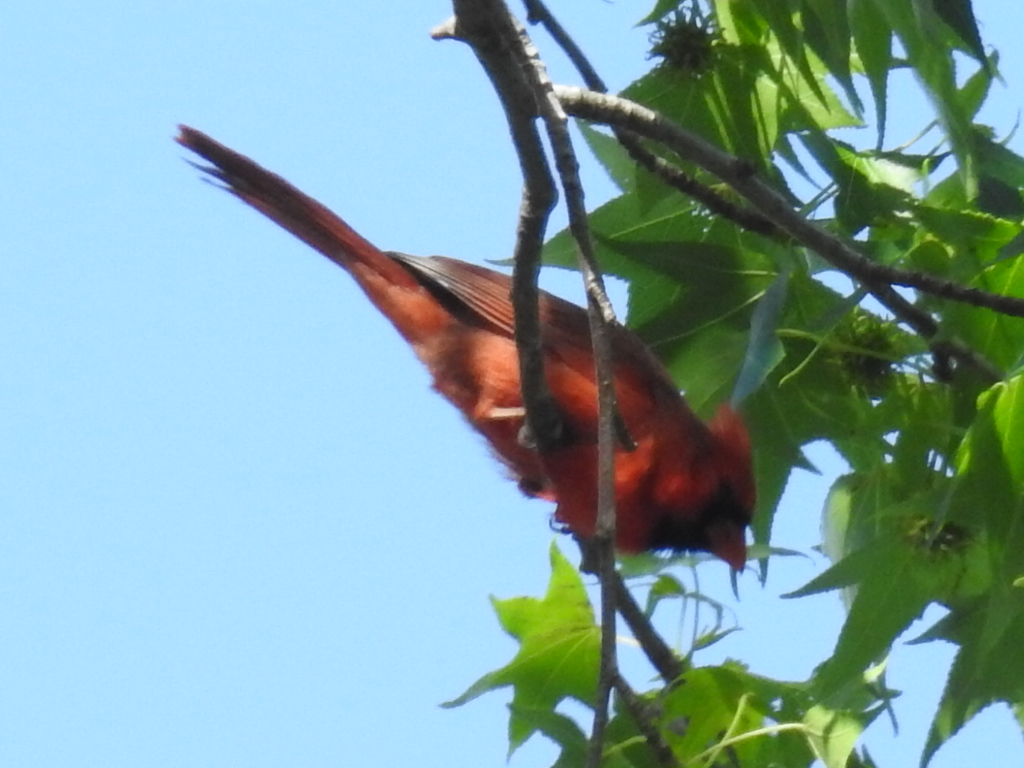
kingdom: Animalia
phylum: Chordata
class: Aves
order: Passeriformes
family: Cardinalidae
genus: Cardinalis
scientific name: Cardinalis cardinalis
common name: Northern cardinal
